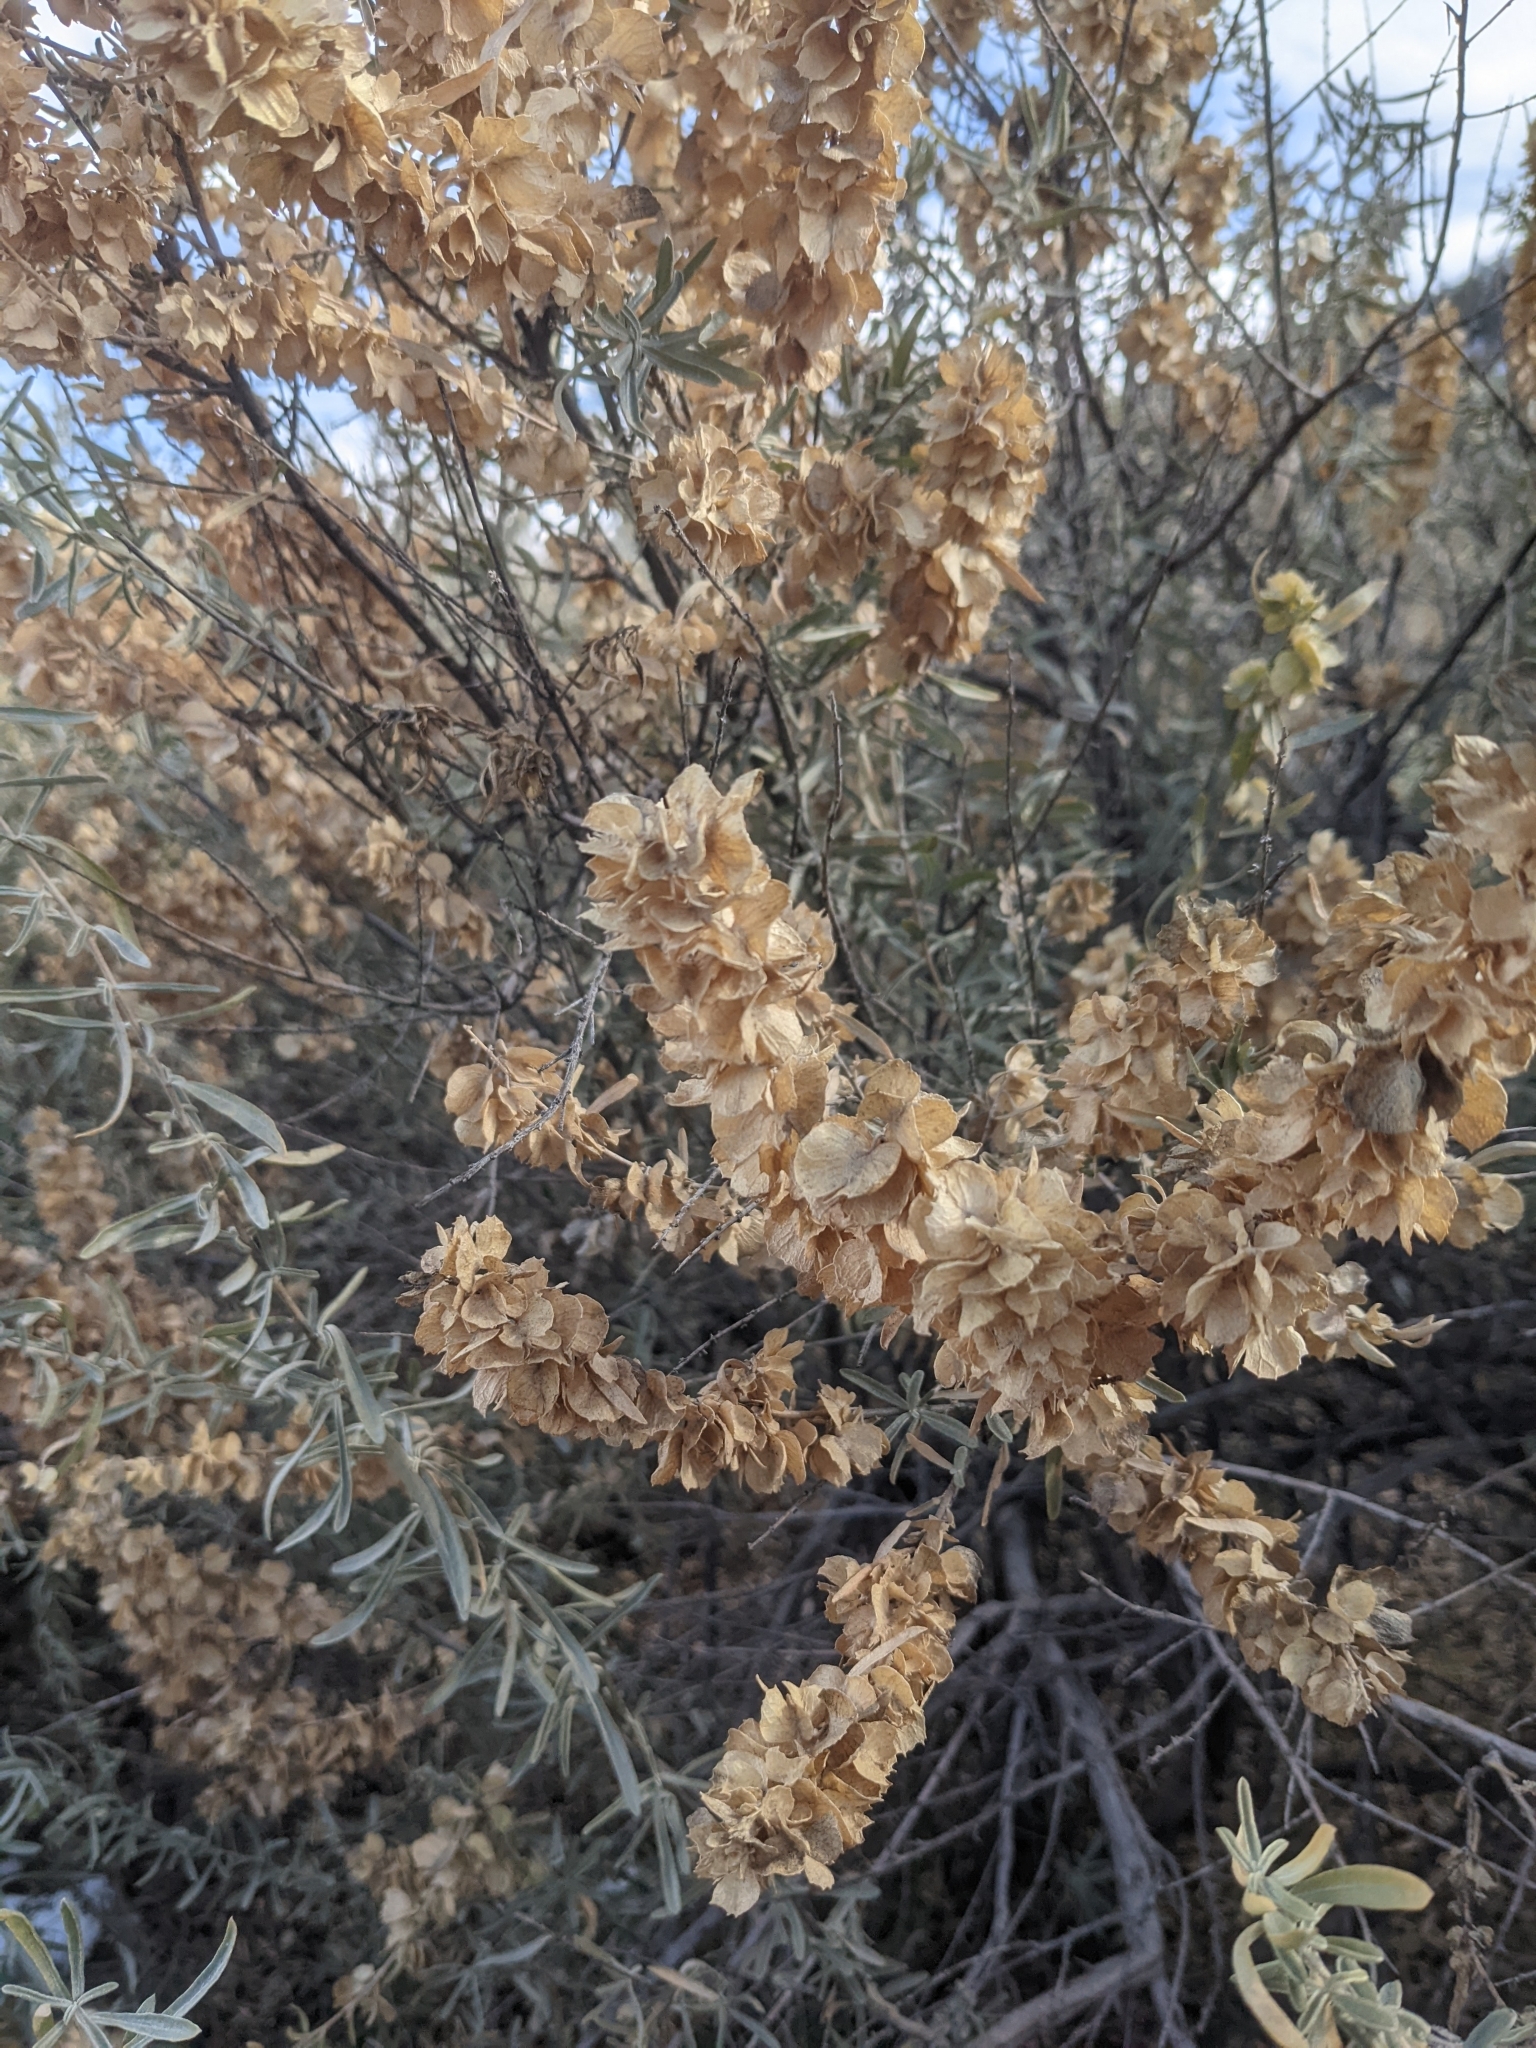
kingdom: Plantae
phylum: Tracheophyta
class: Magnoliopsida
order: Caryophyllales
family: Amaranthaceae
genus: Atriplex
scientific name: Atriplex canescens
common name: Four-wing saltbush
